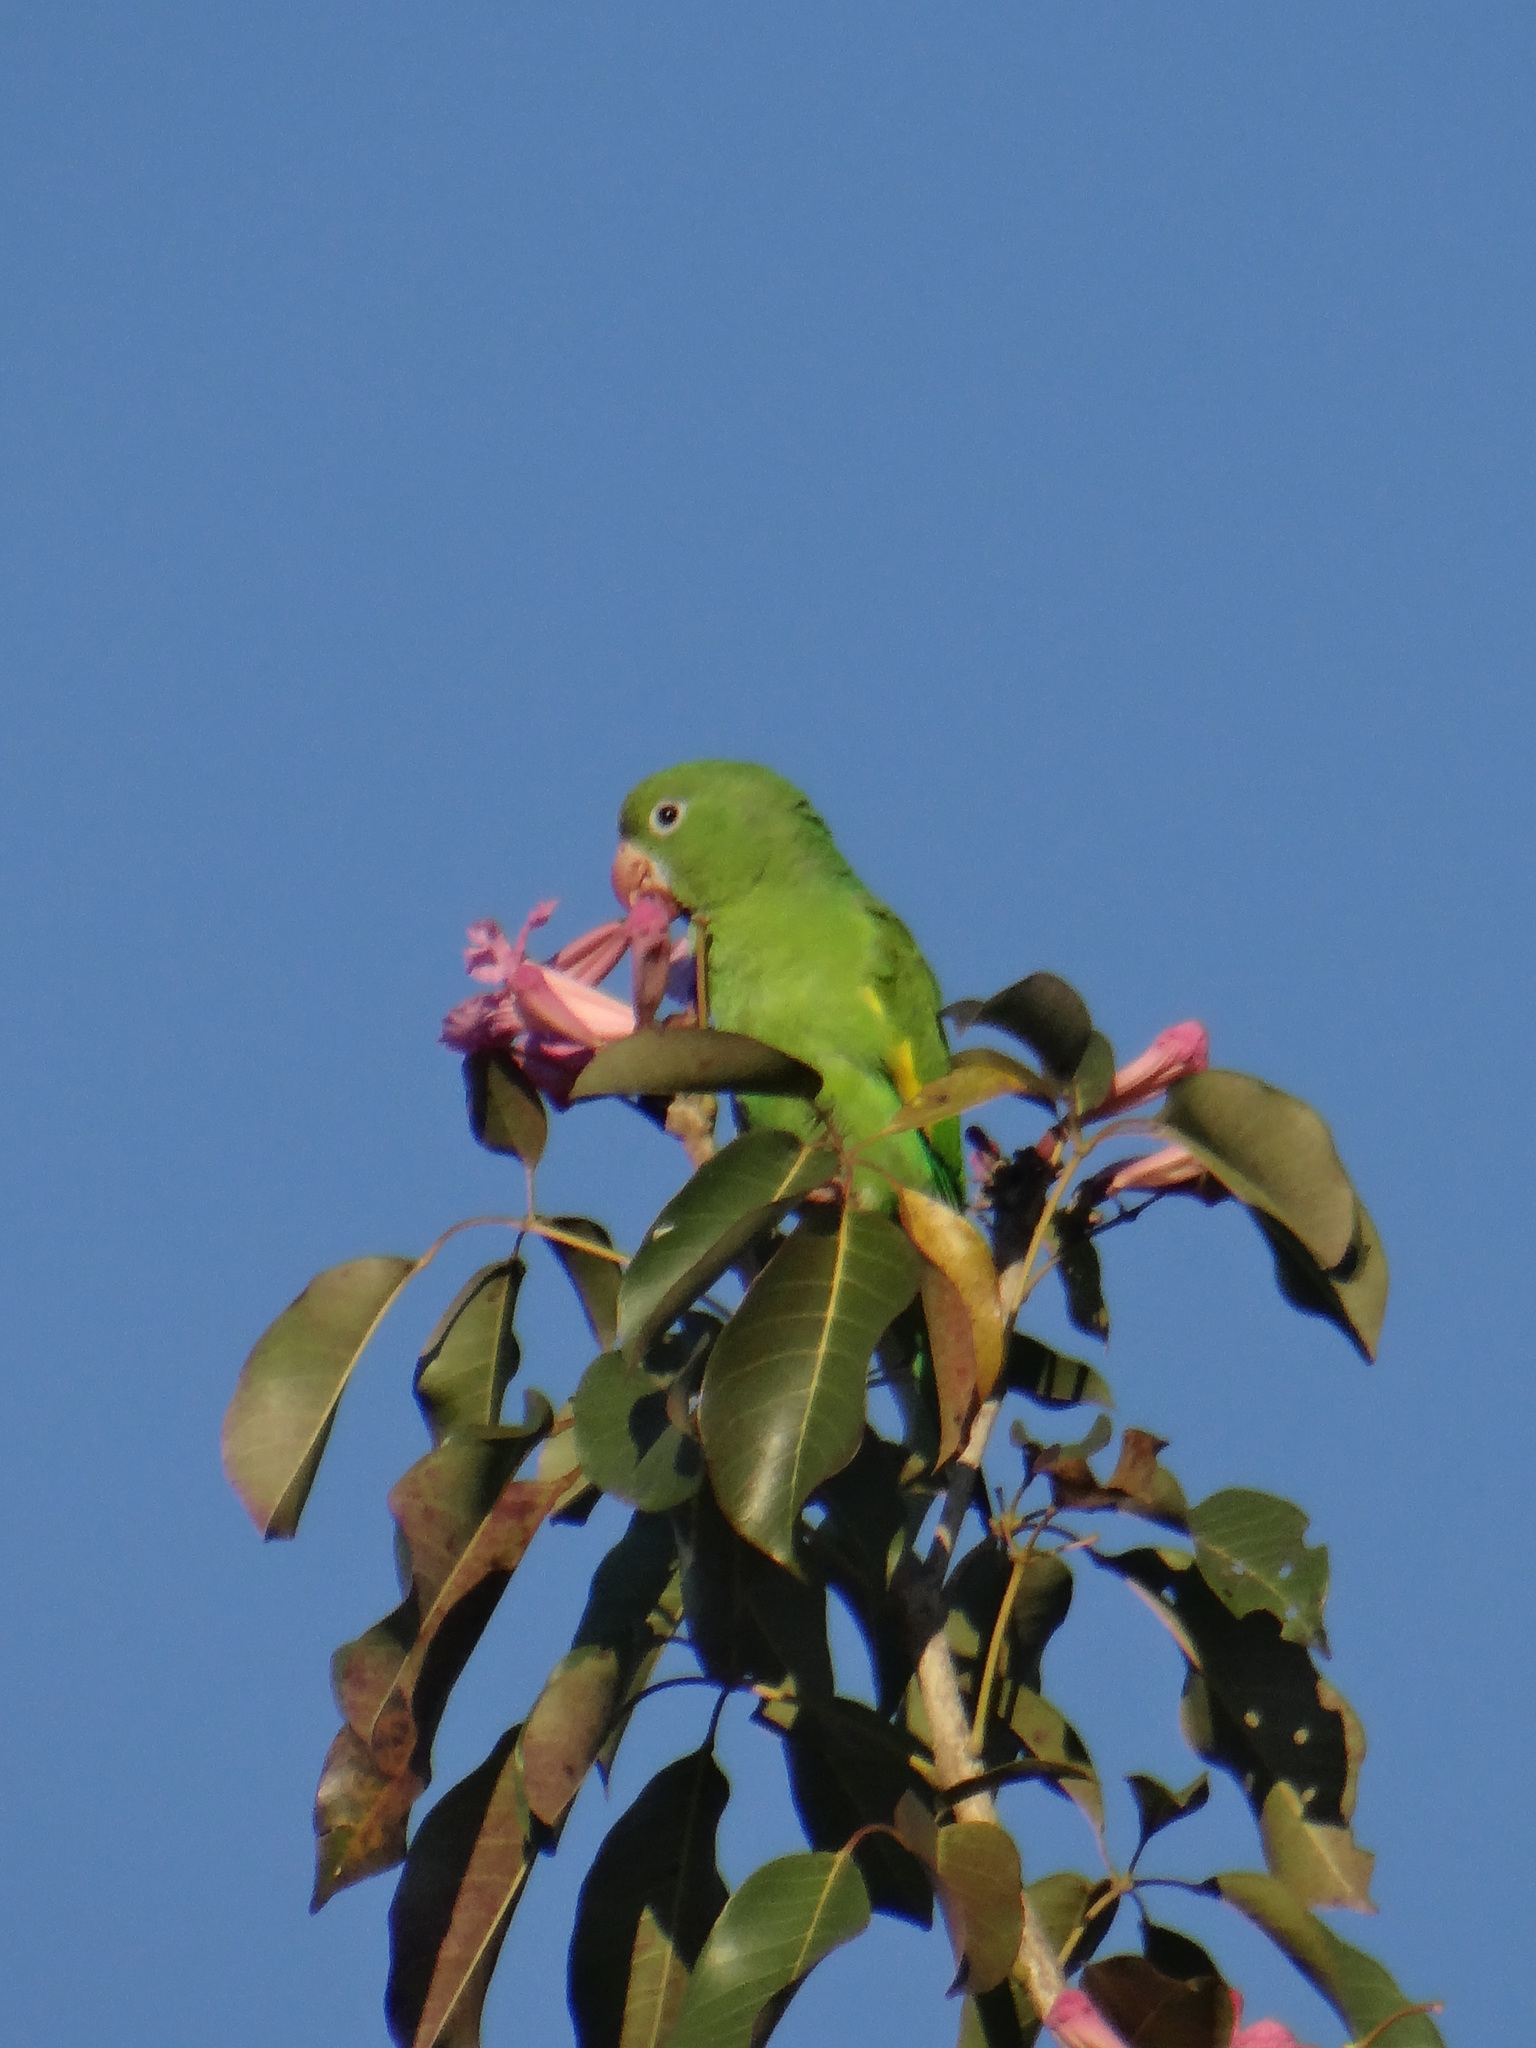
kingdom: Animalia
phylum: Chordata
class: Aves
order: Psittaciformes
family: Psittacidae
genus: Brotogeris
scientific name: Brotogeris chiriri
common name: Yellow-chevroned parakeet
